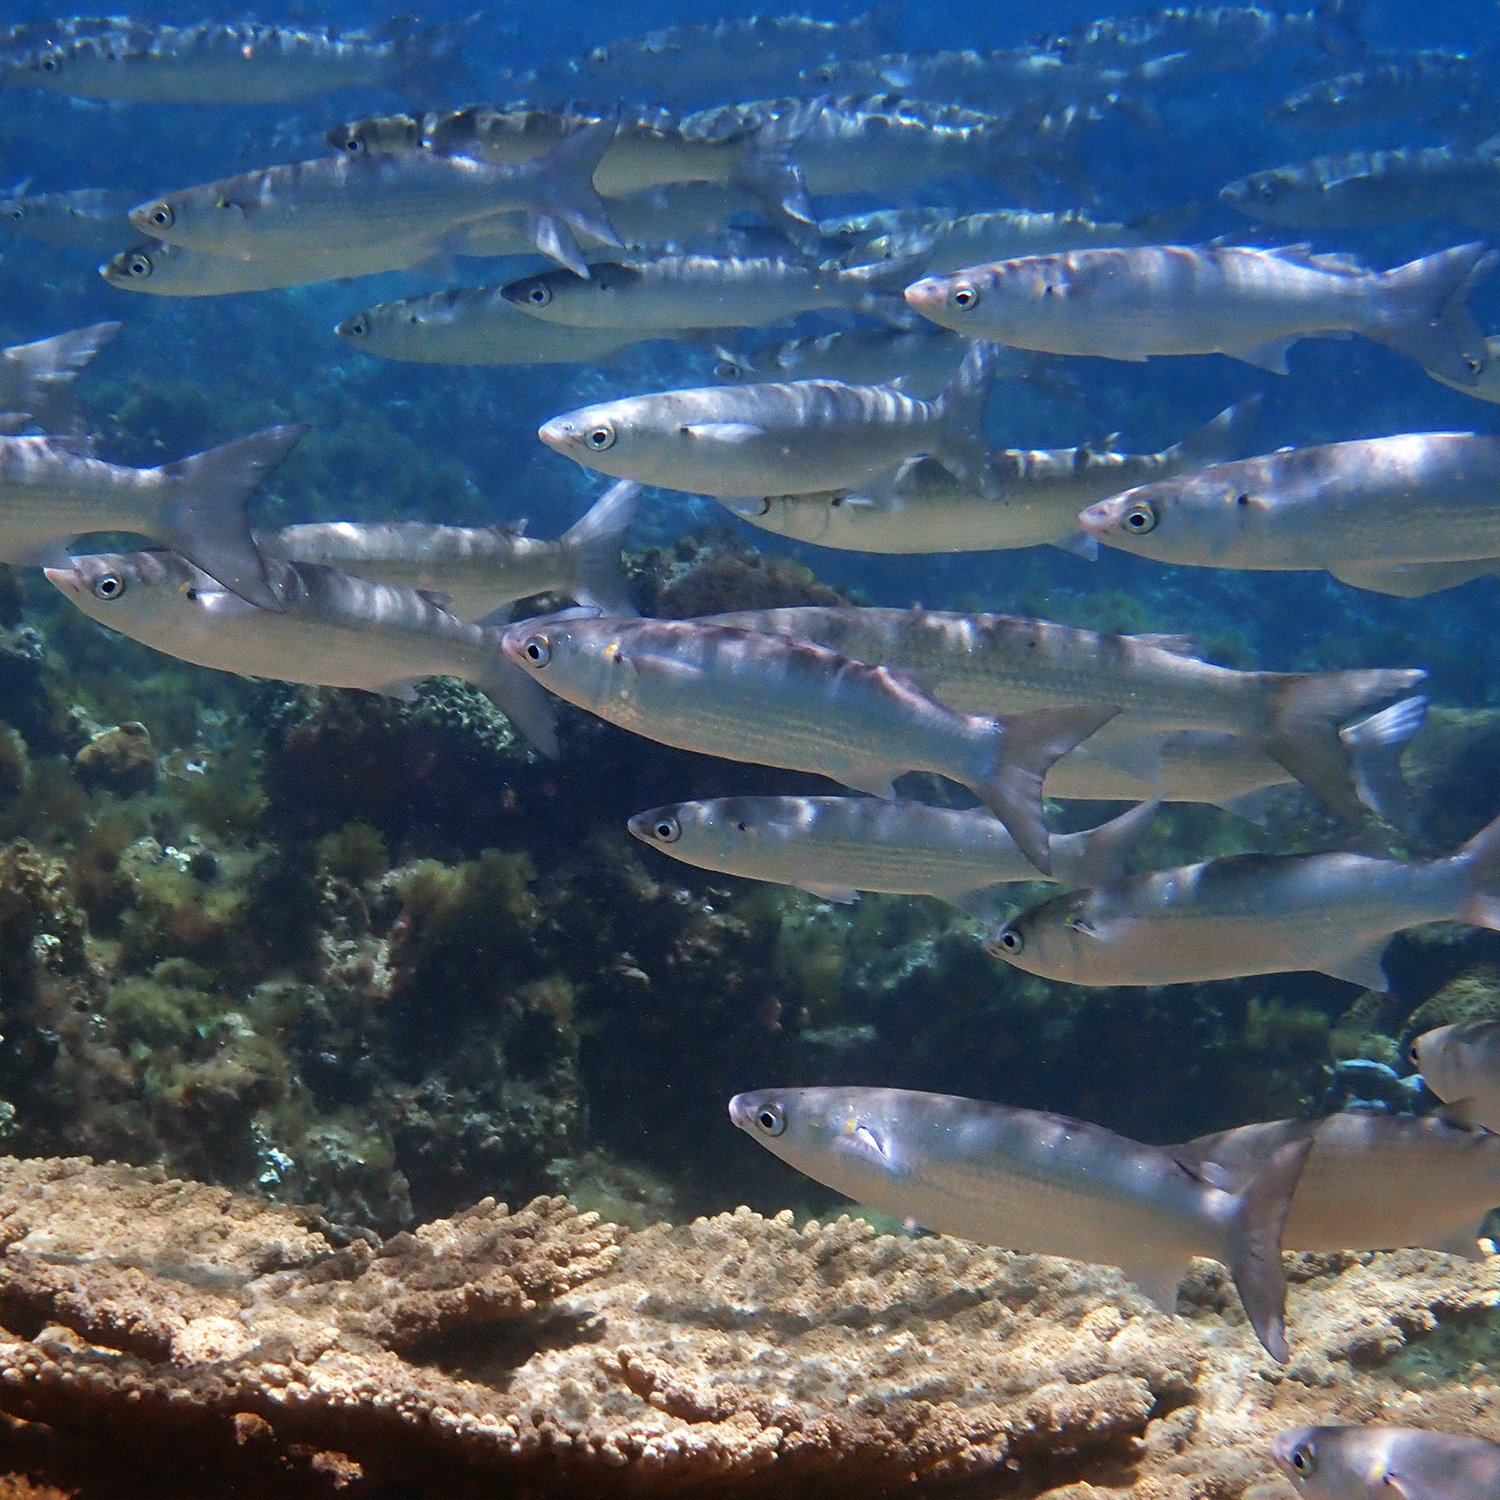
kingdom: Animalia
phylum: Chordata
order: Mugiliformes
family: Mugilidae
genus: Myxus
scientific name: Myxus elongatus
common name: Sand grey mullet
